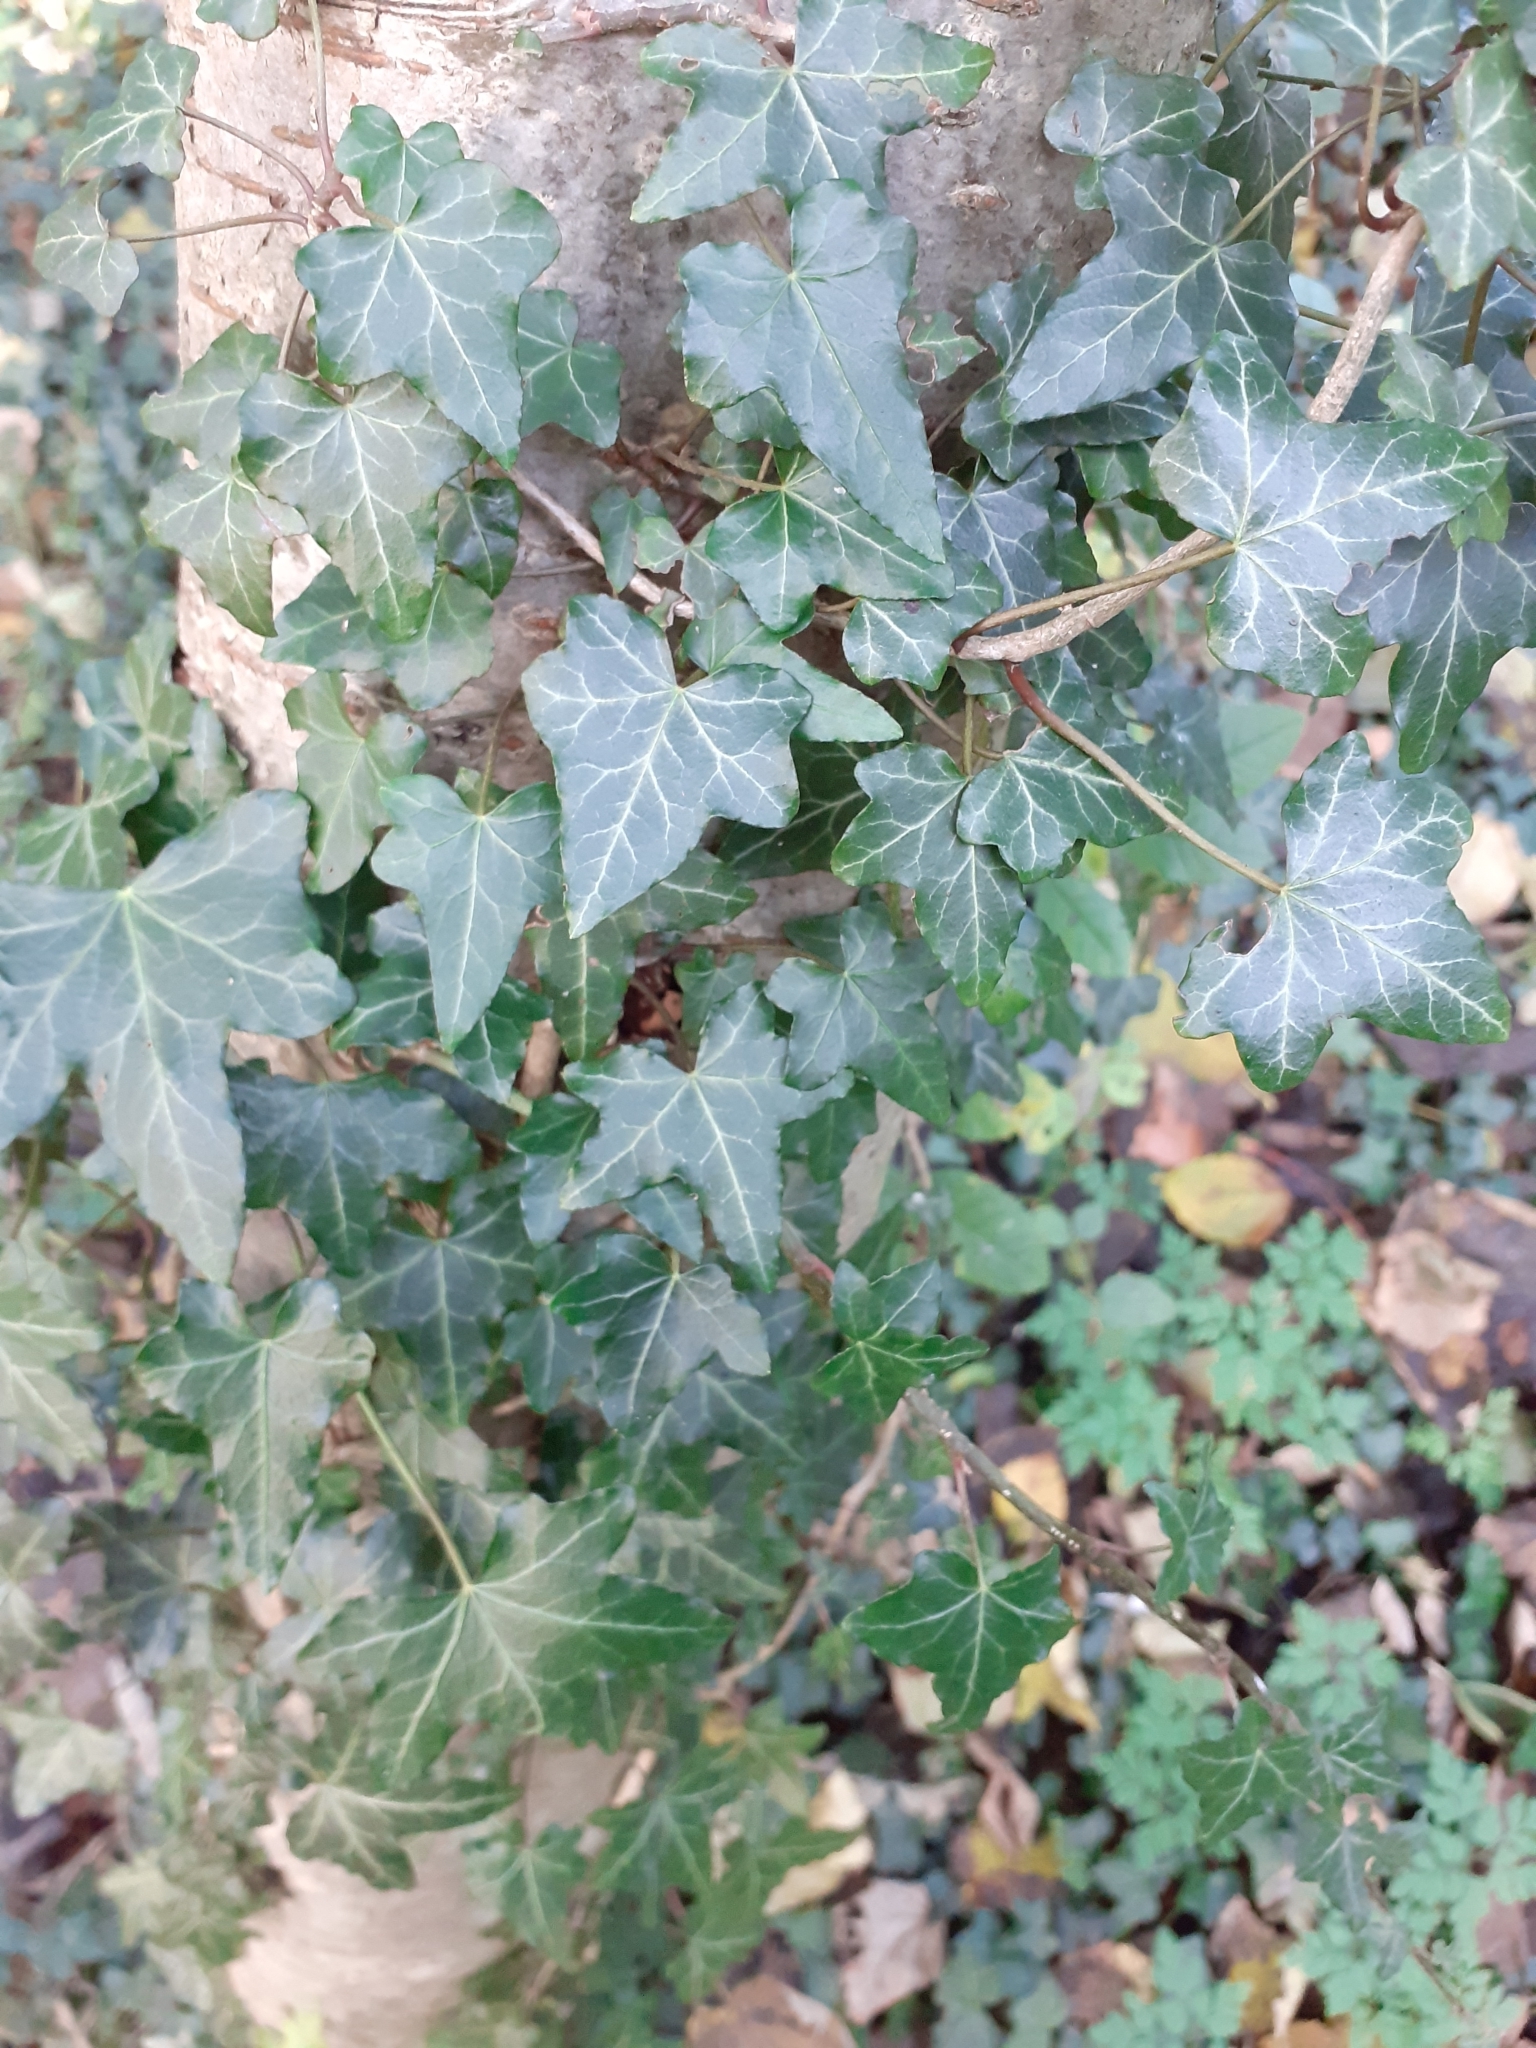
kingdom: Plantae
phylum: Tracheophyta
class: Magnoliopsida
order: Apiales
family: Araliaceae
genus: Hedera
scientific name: Hedera helix
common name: Ivy
